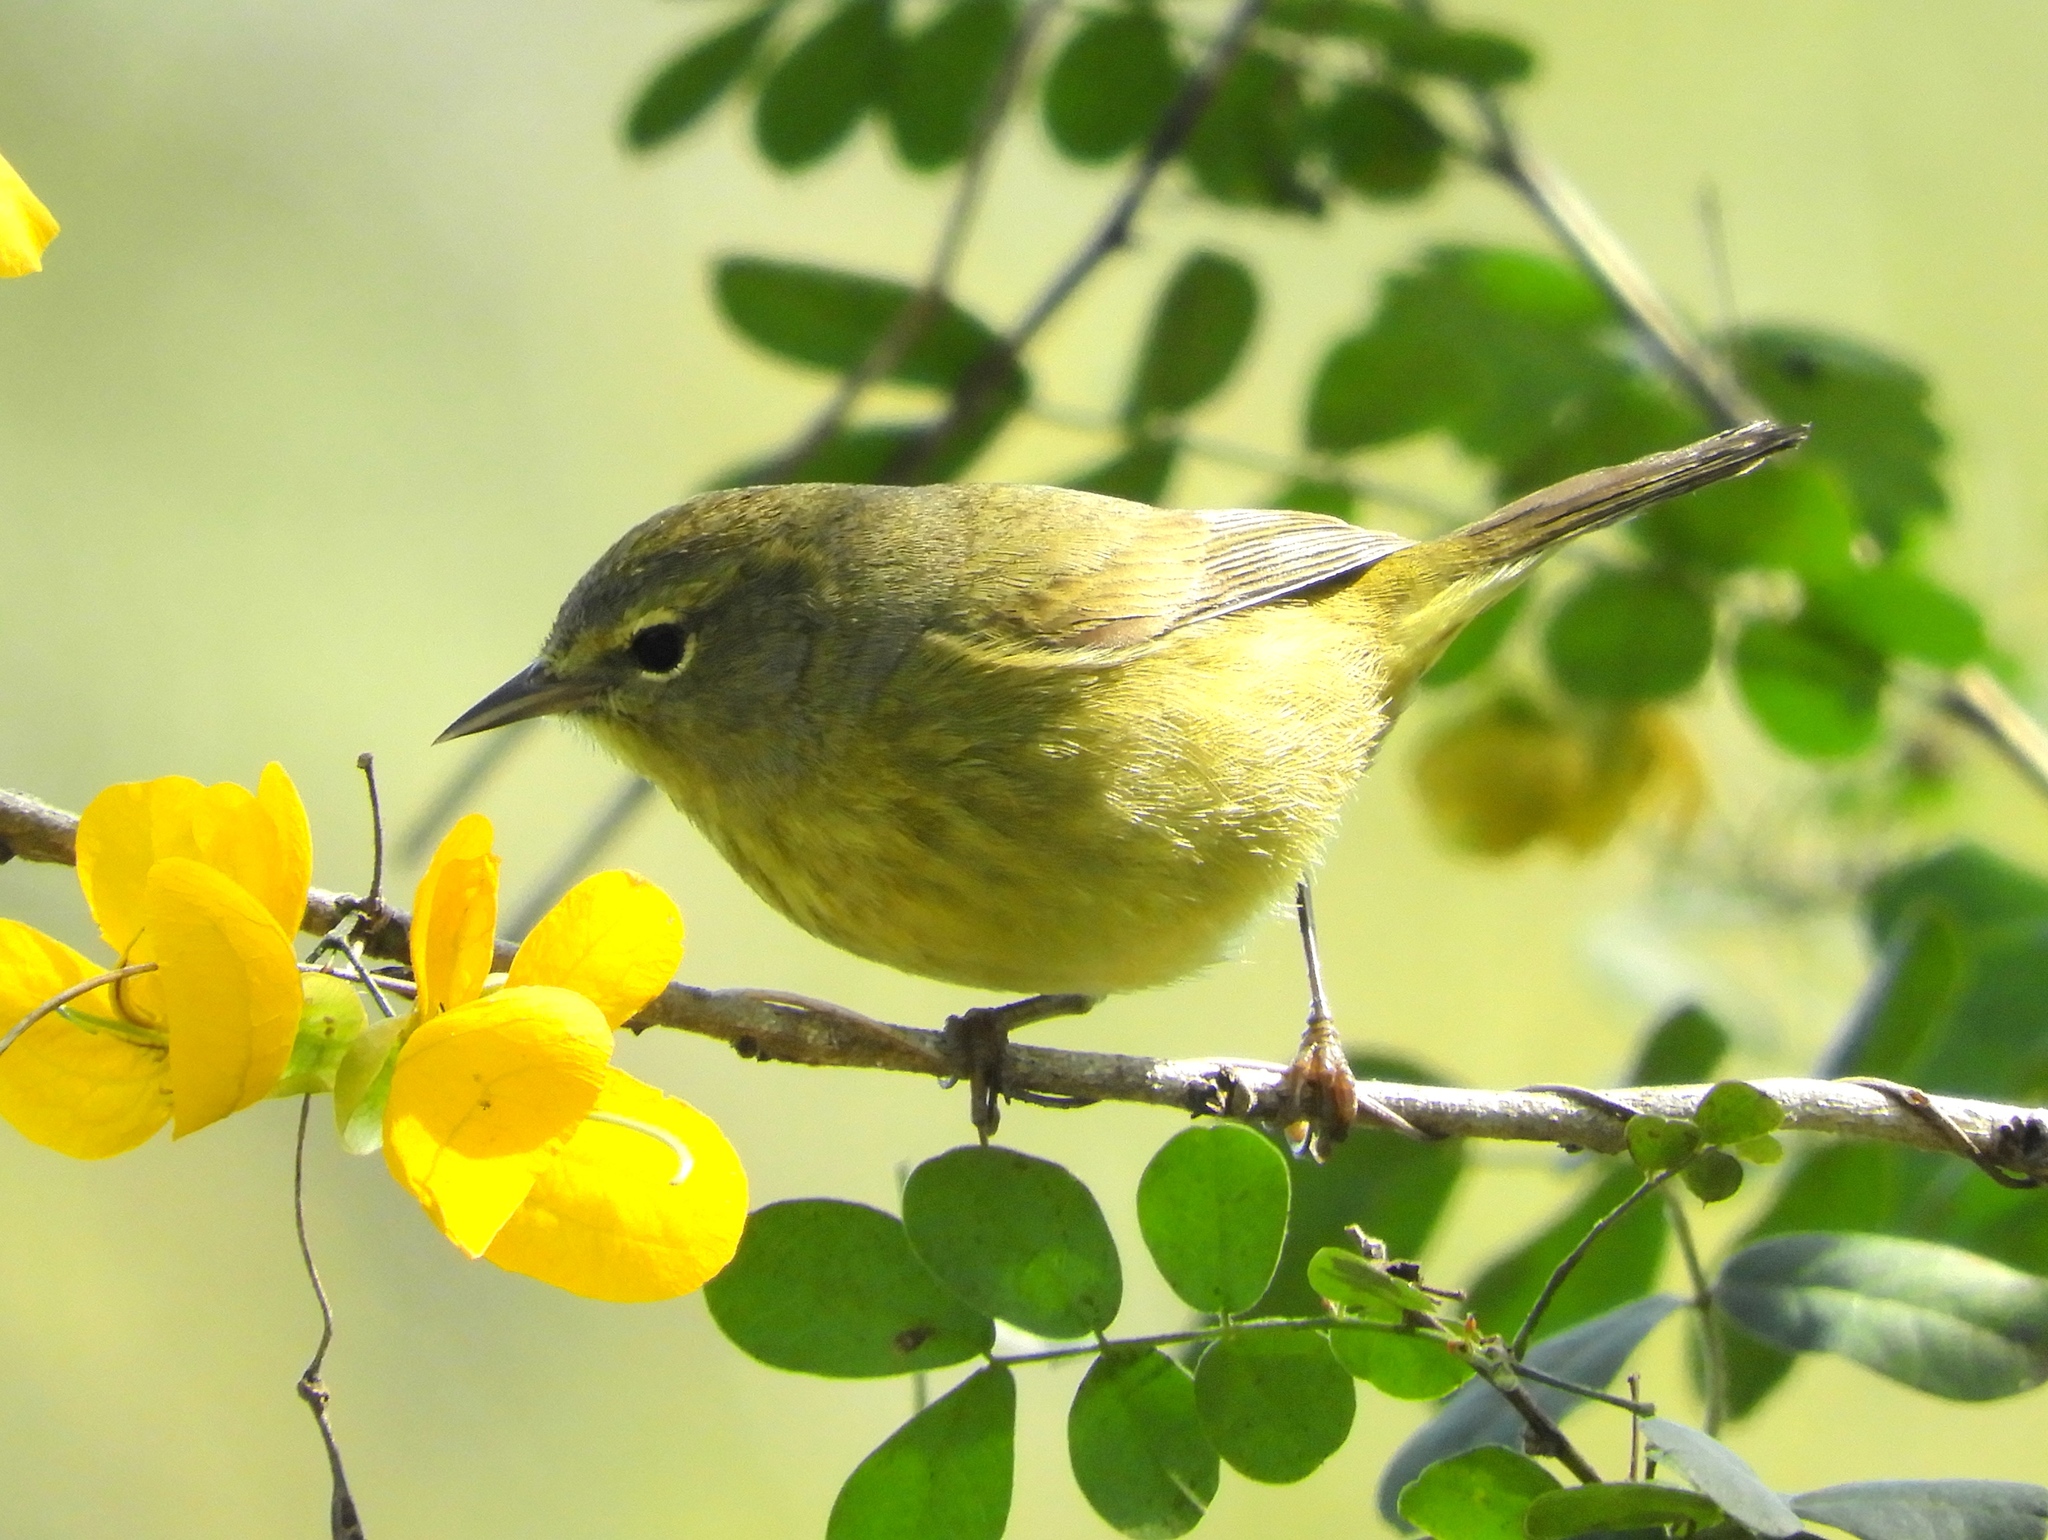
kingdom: Animalia
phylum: Chordata
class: Aves
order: Passeriformes
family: Parulidae
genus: Leiothlypis
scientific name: Leiothlypis celata
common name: Orange-crowned warbler
